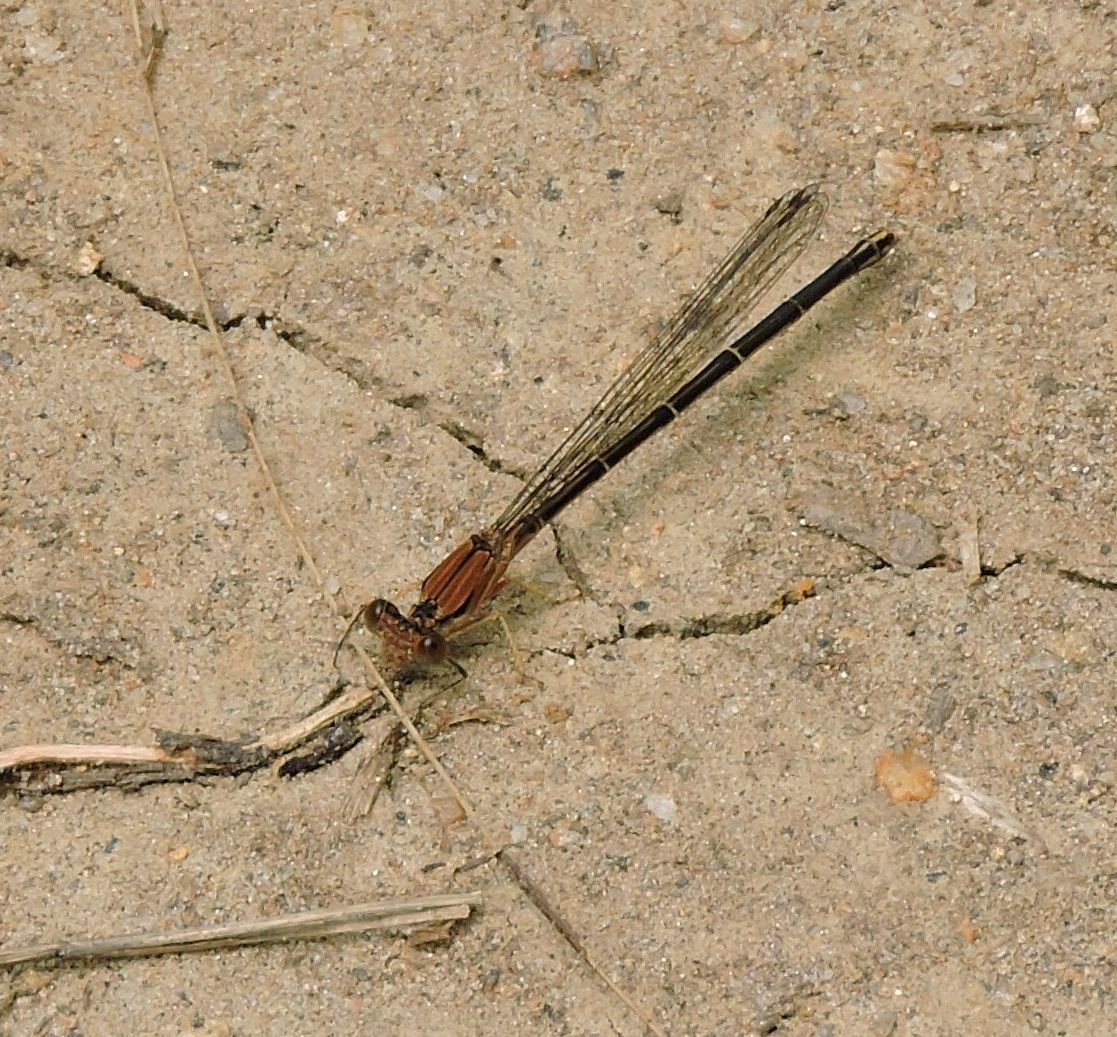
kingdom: Animalia
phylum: Arthropoda
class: Insecta
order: Odonata
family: Coenagrionidae
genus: Argia
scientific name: Argia apicalis
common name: Blue-fronted dancer
